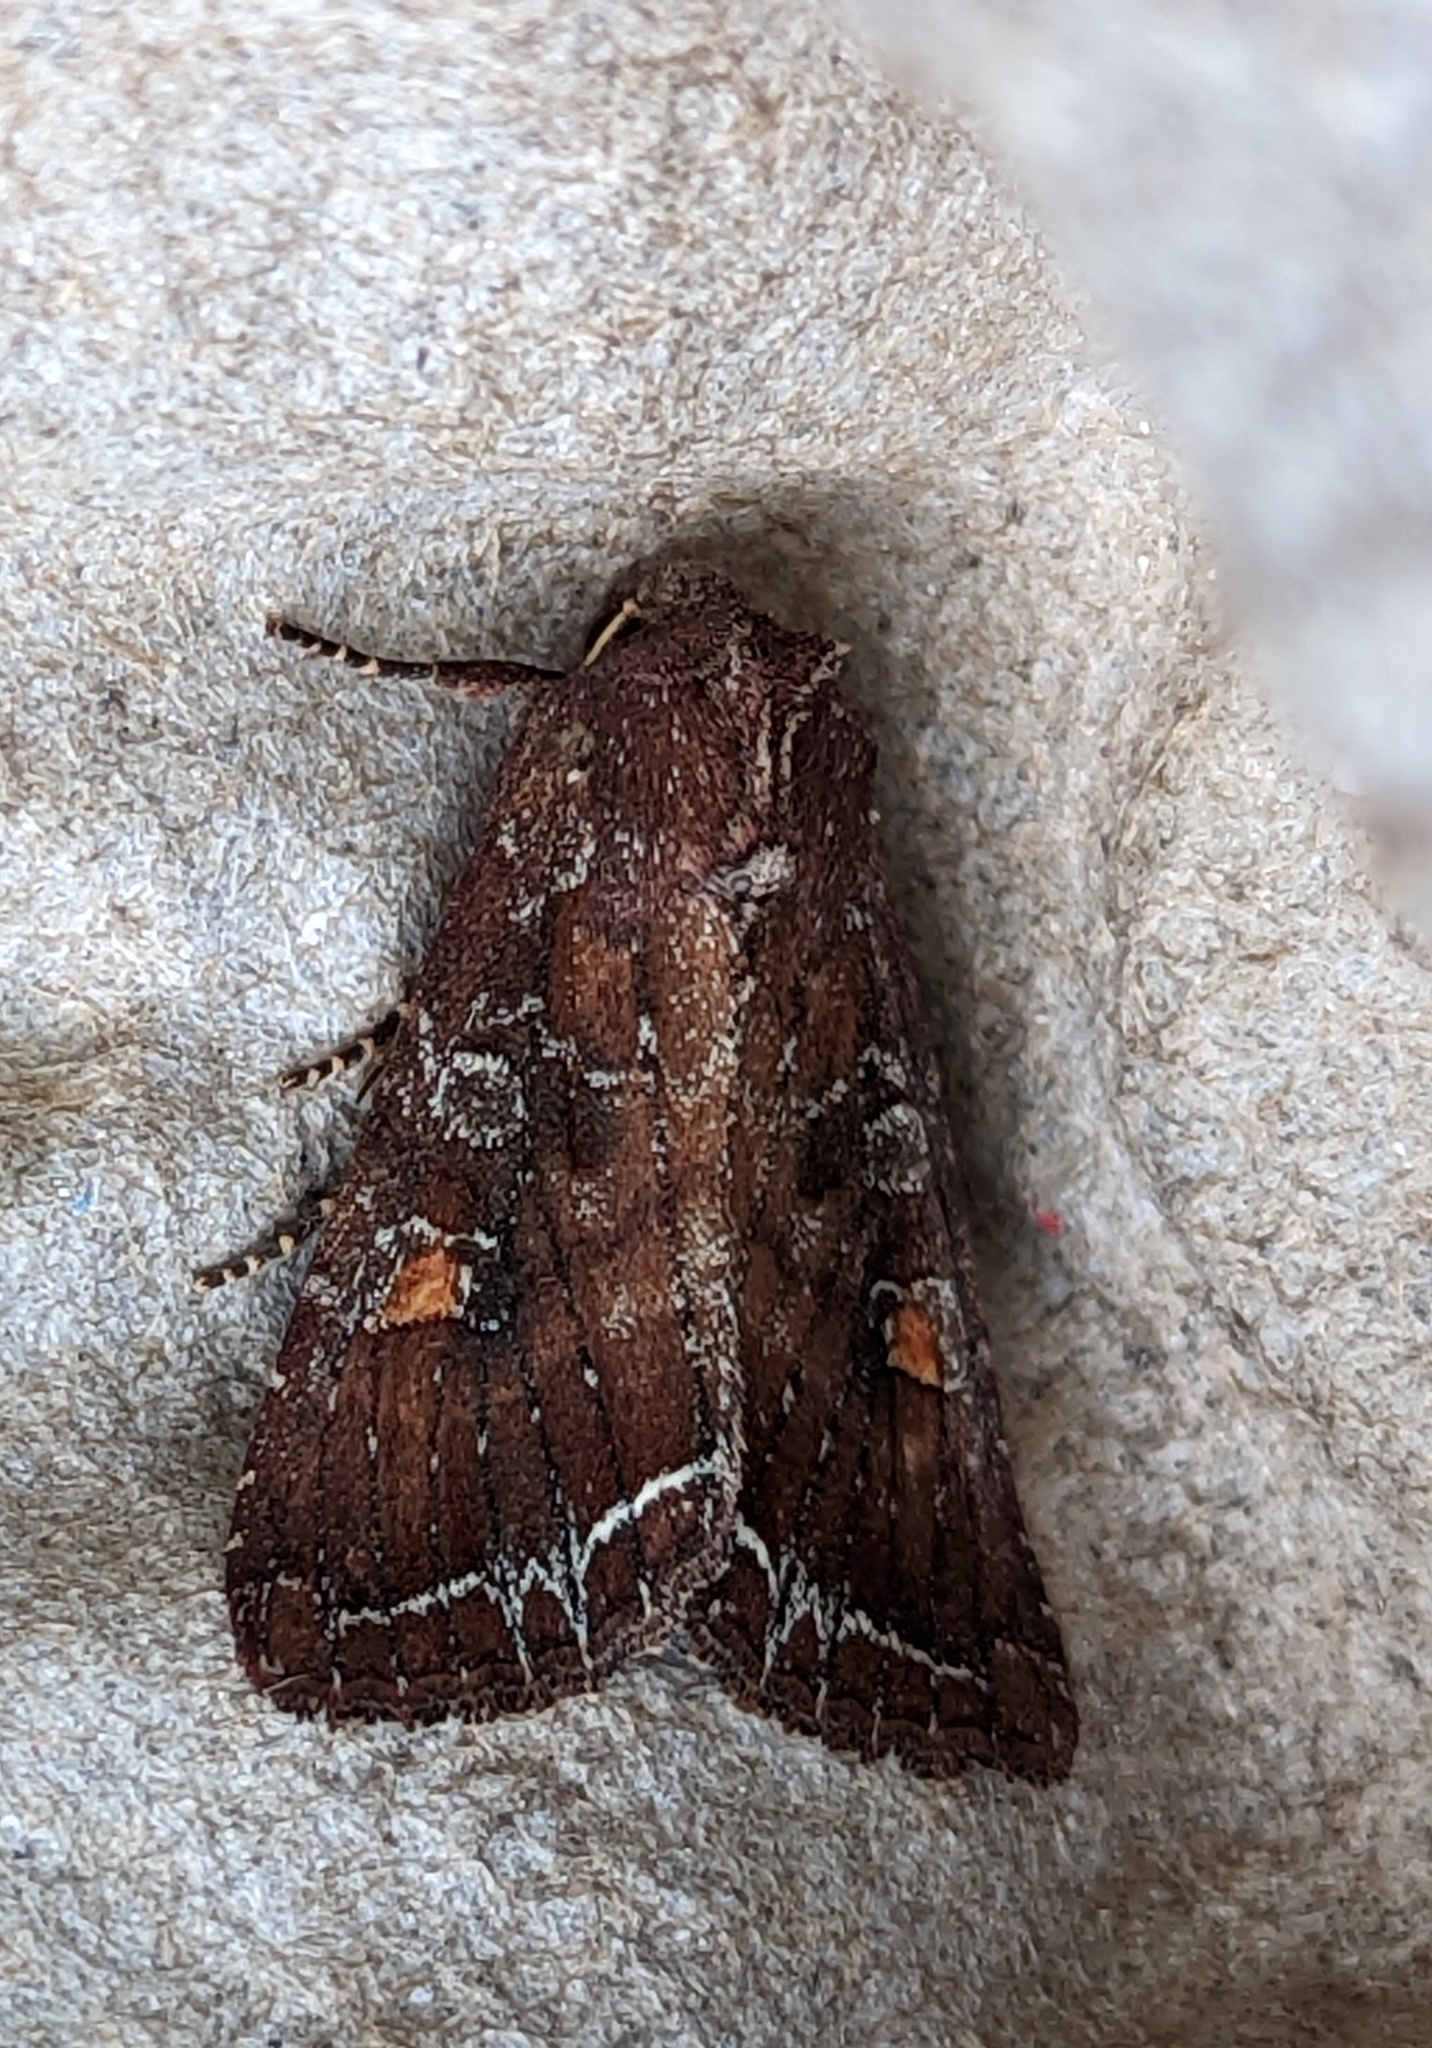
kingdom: Animalia
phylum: Arthropoda
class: Insecta
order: Lepidoptera
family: Noctuidae
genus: Lacanobia
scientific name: Lacanobia oleracea
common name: Bright-line brown-eye
